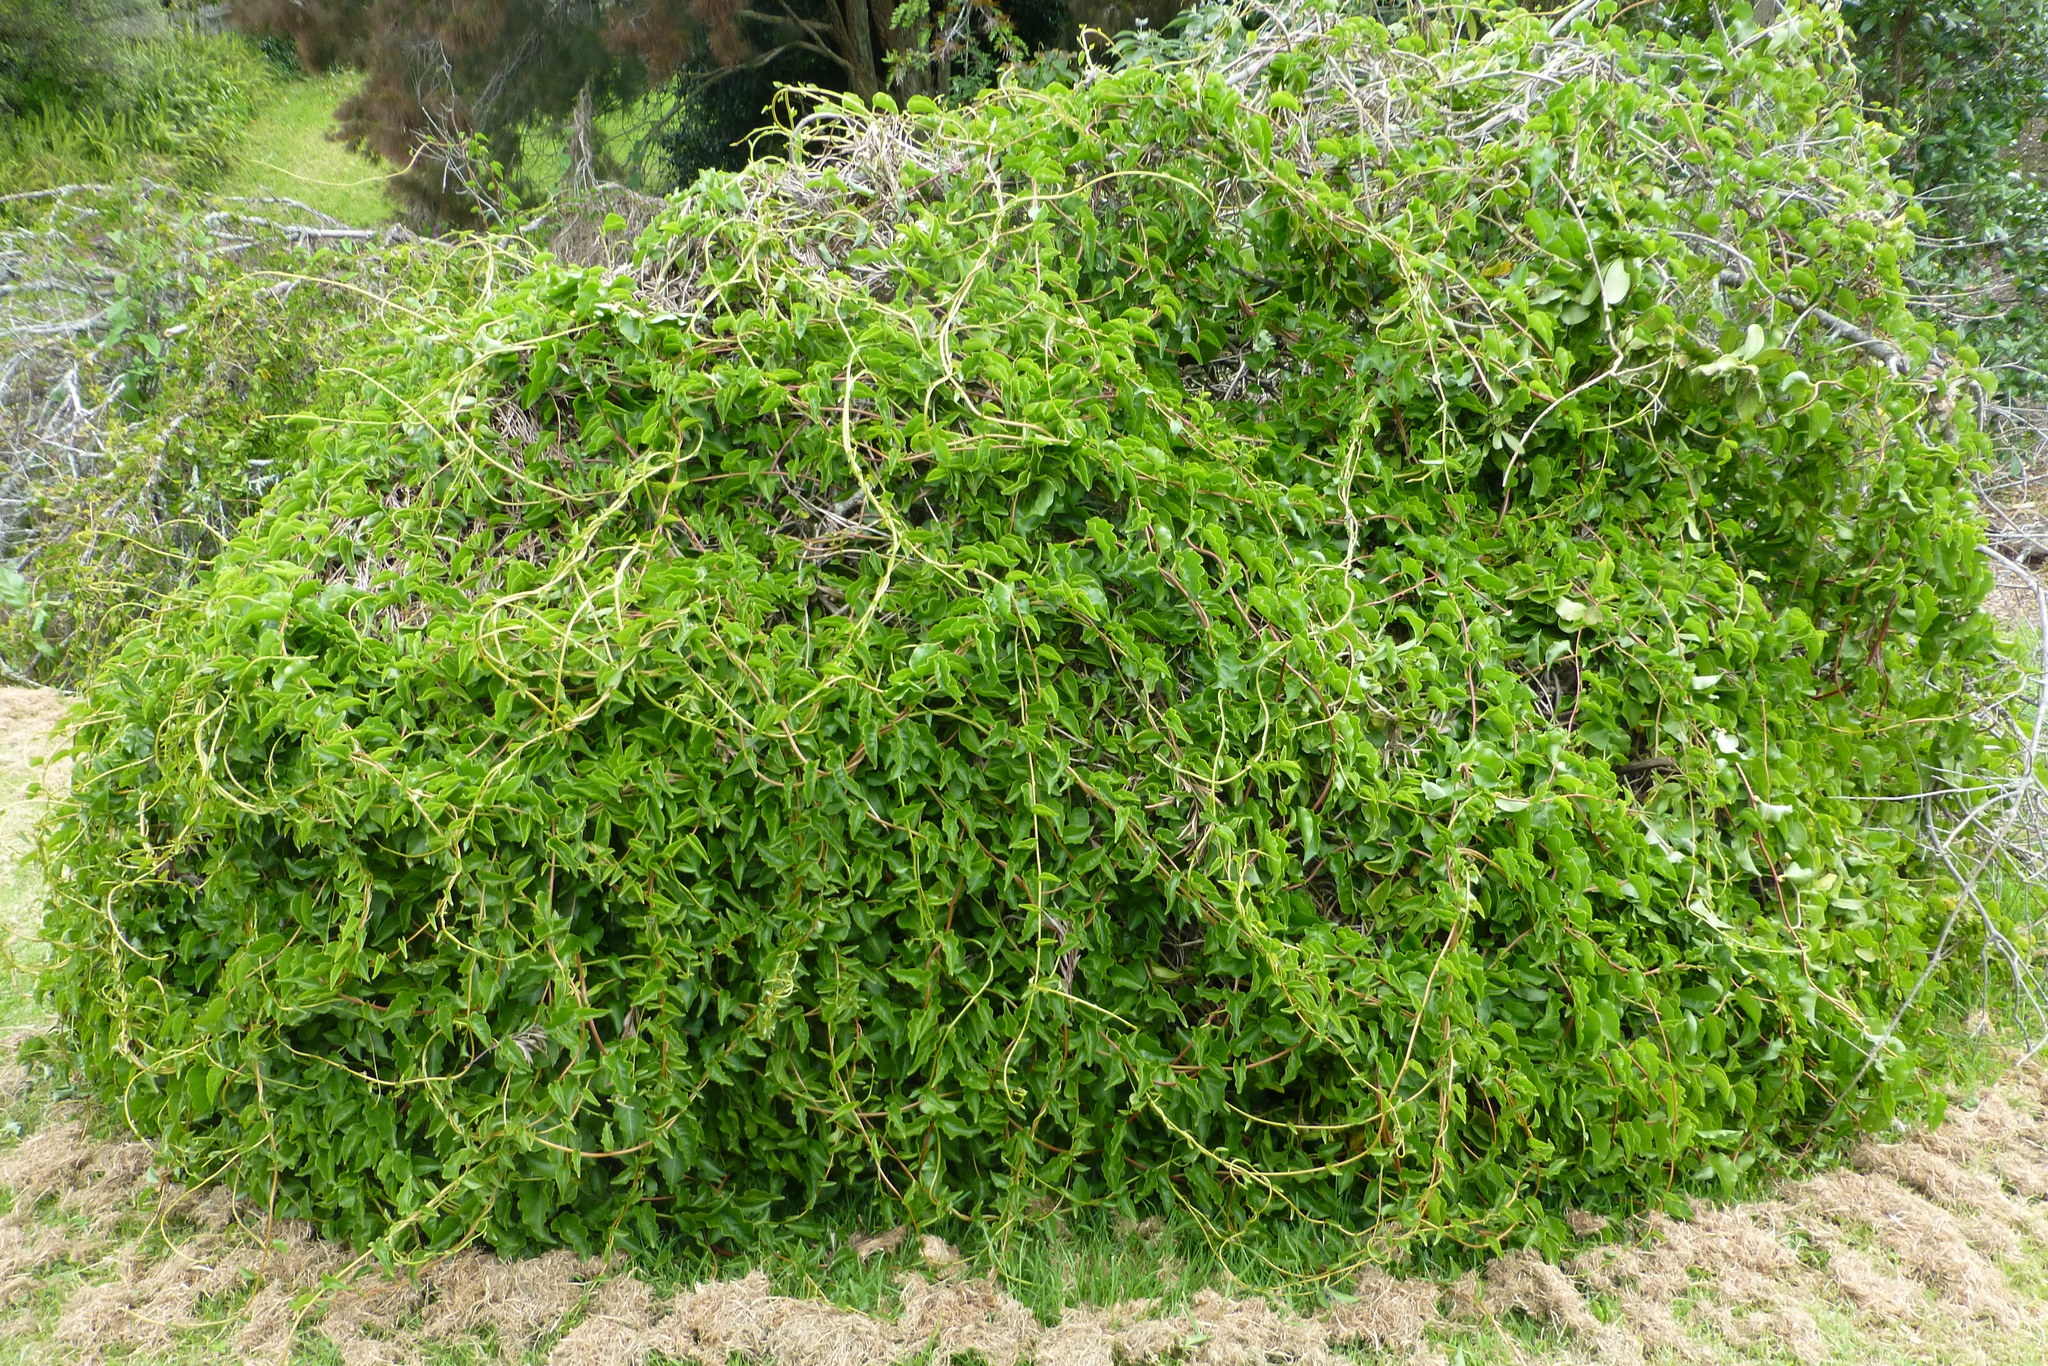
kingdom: Plantae
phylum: Tracheophyta
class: Magnoliopsida
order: Caryophyllales
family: Basellaceae
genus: Anredera
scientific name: Anredera cordifolia
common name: Heartleaf madeiravine
